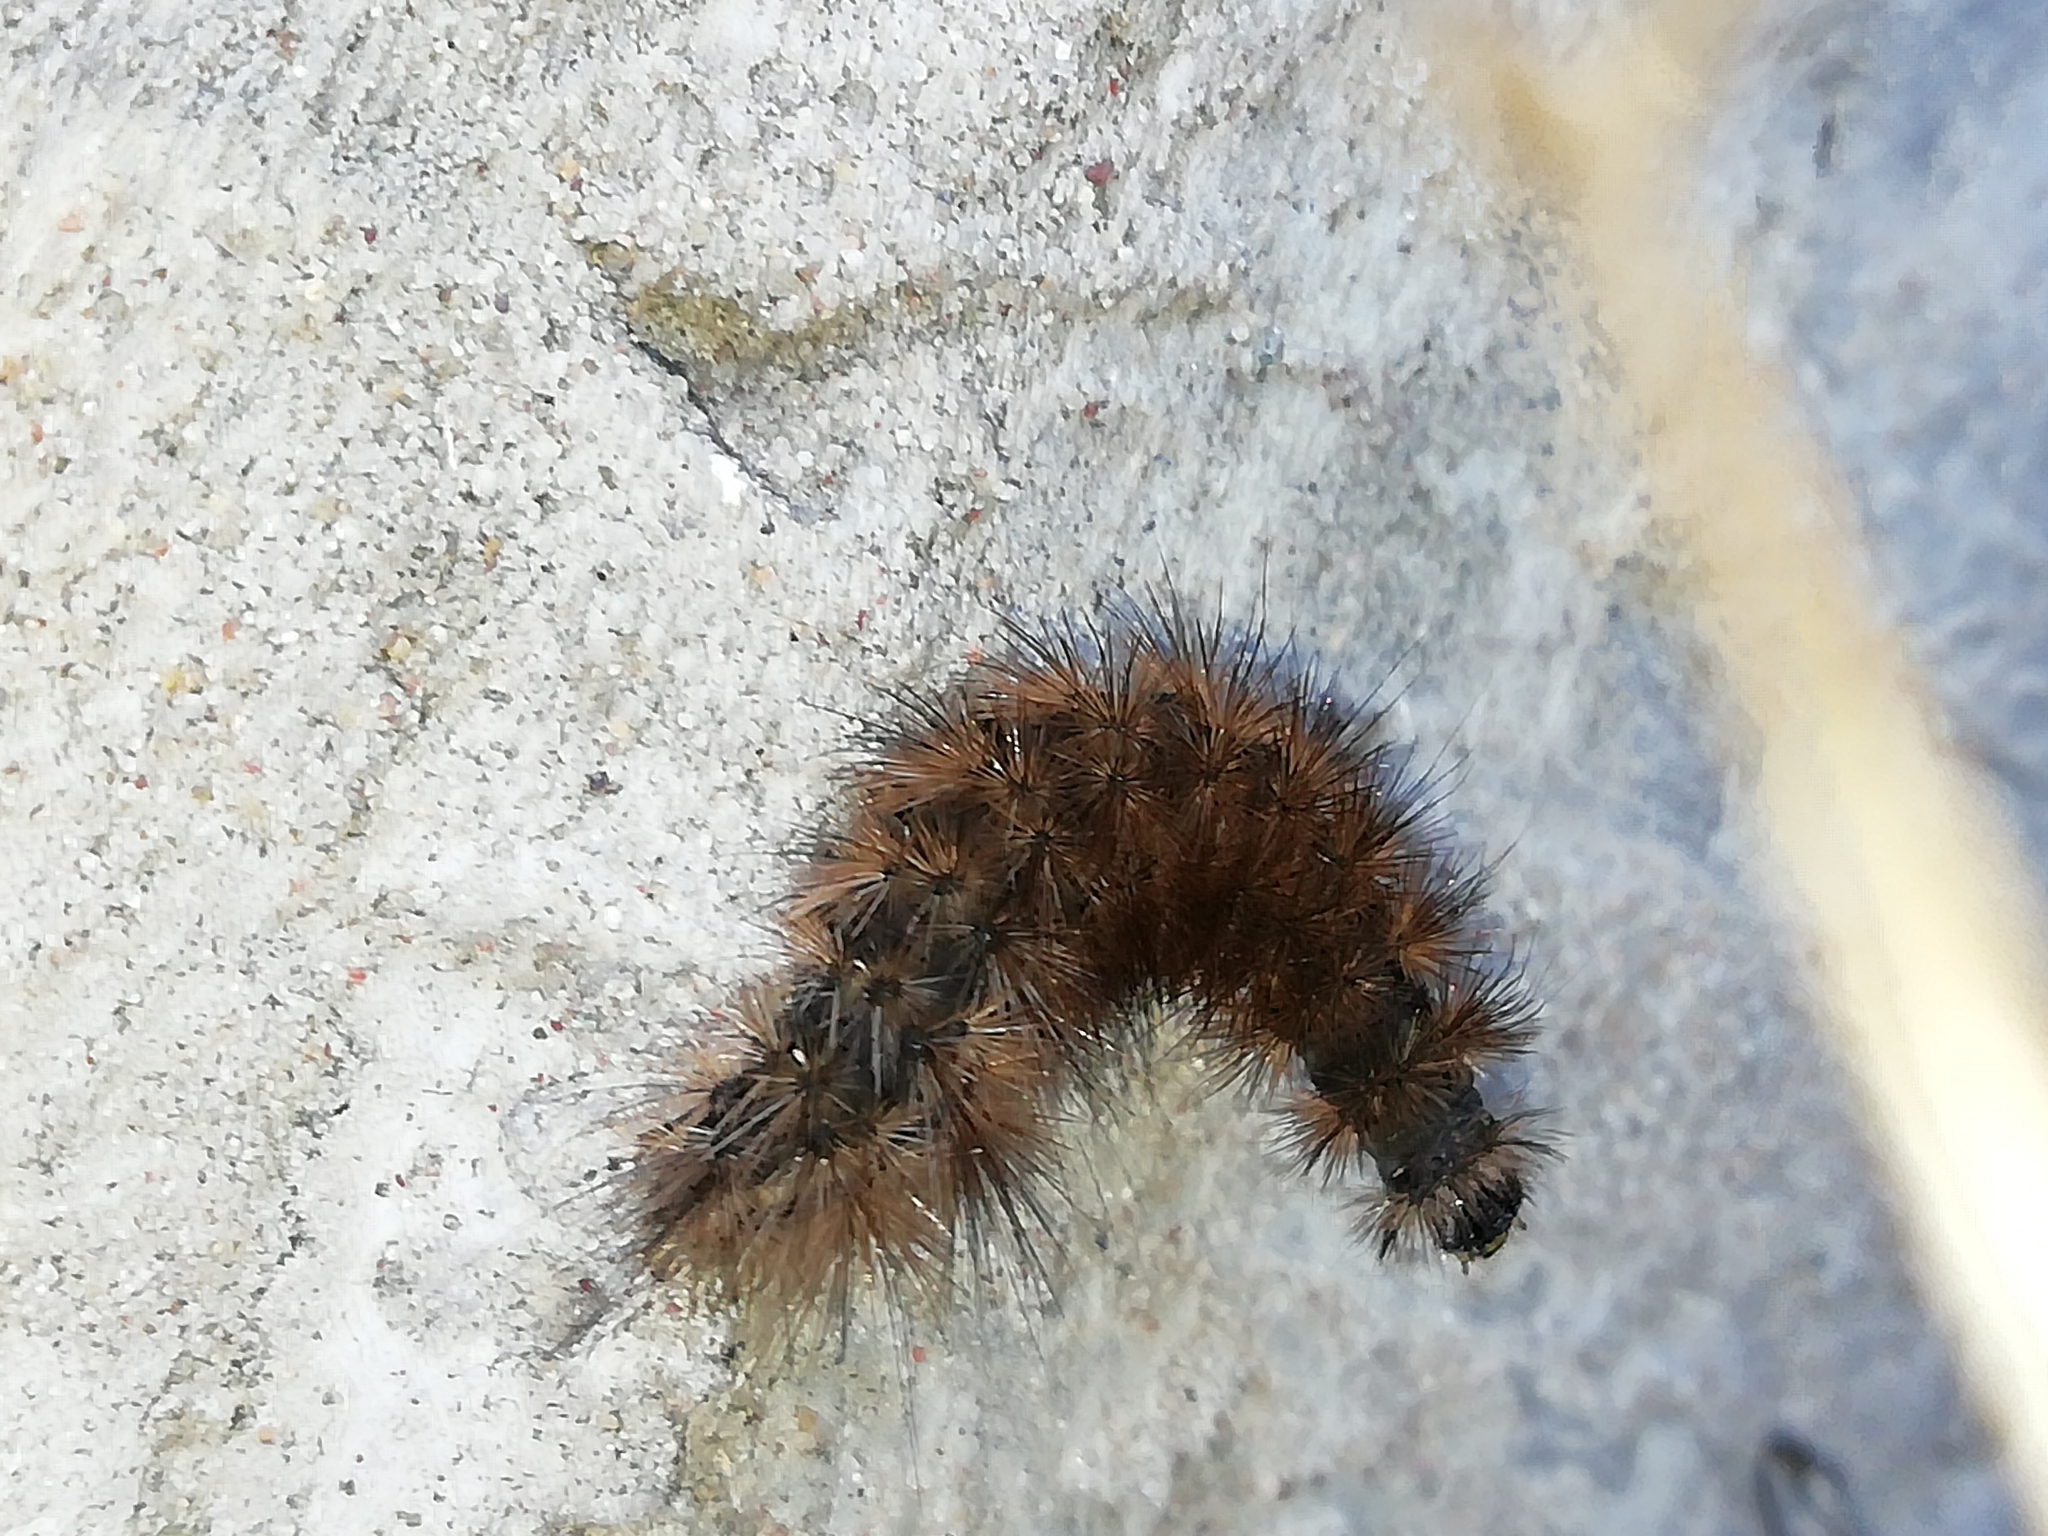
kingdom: Animalia
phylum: Arthropoda
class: Insecta
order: Lepidoptera
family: Erebidae
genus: Phragmatobia
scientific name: Phragmatobia fuliginosa
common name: Ruby tiger
